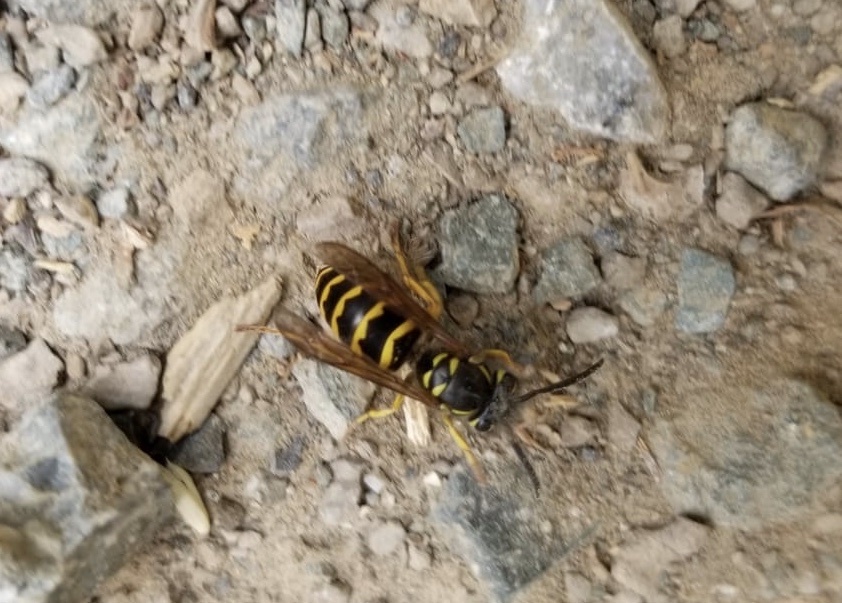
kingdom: Animalia
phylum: Arthropoda
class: Insecta
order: Hymenoptera
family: Vespidae
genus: Vespula
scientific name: Vespula alascensis
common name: Alaska yellowjacket
